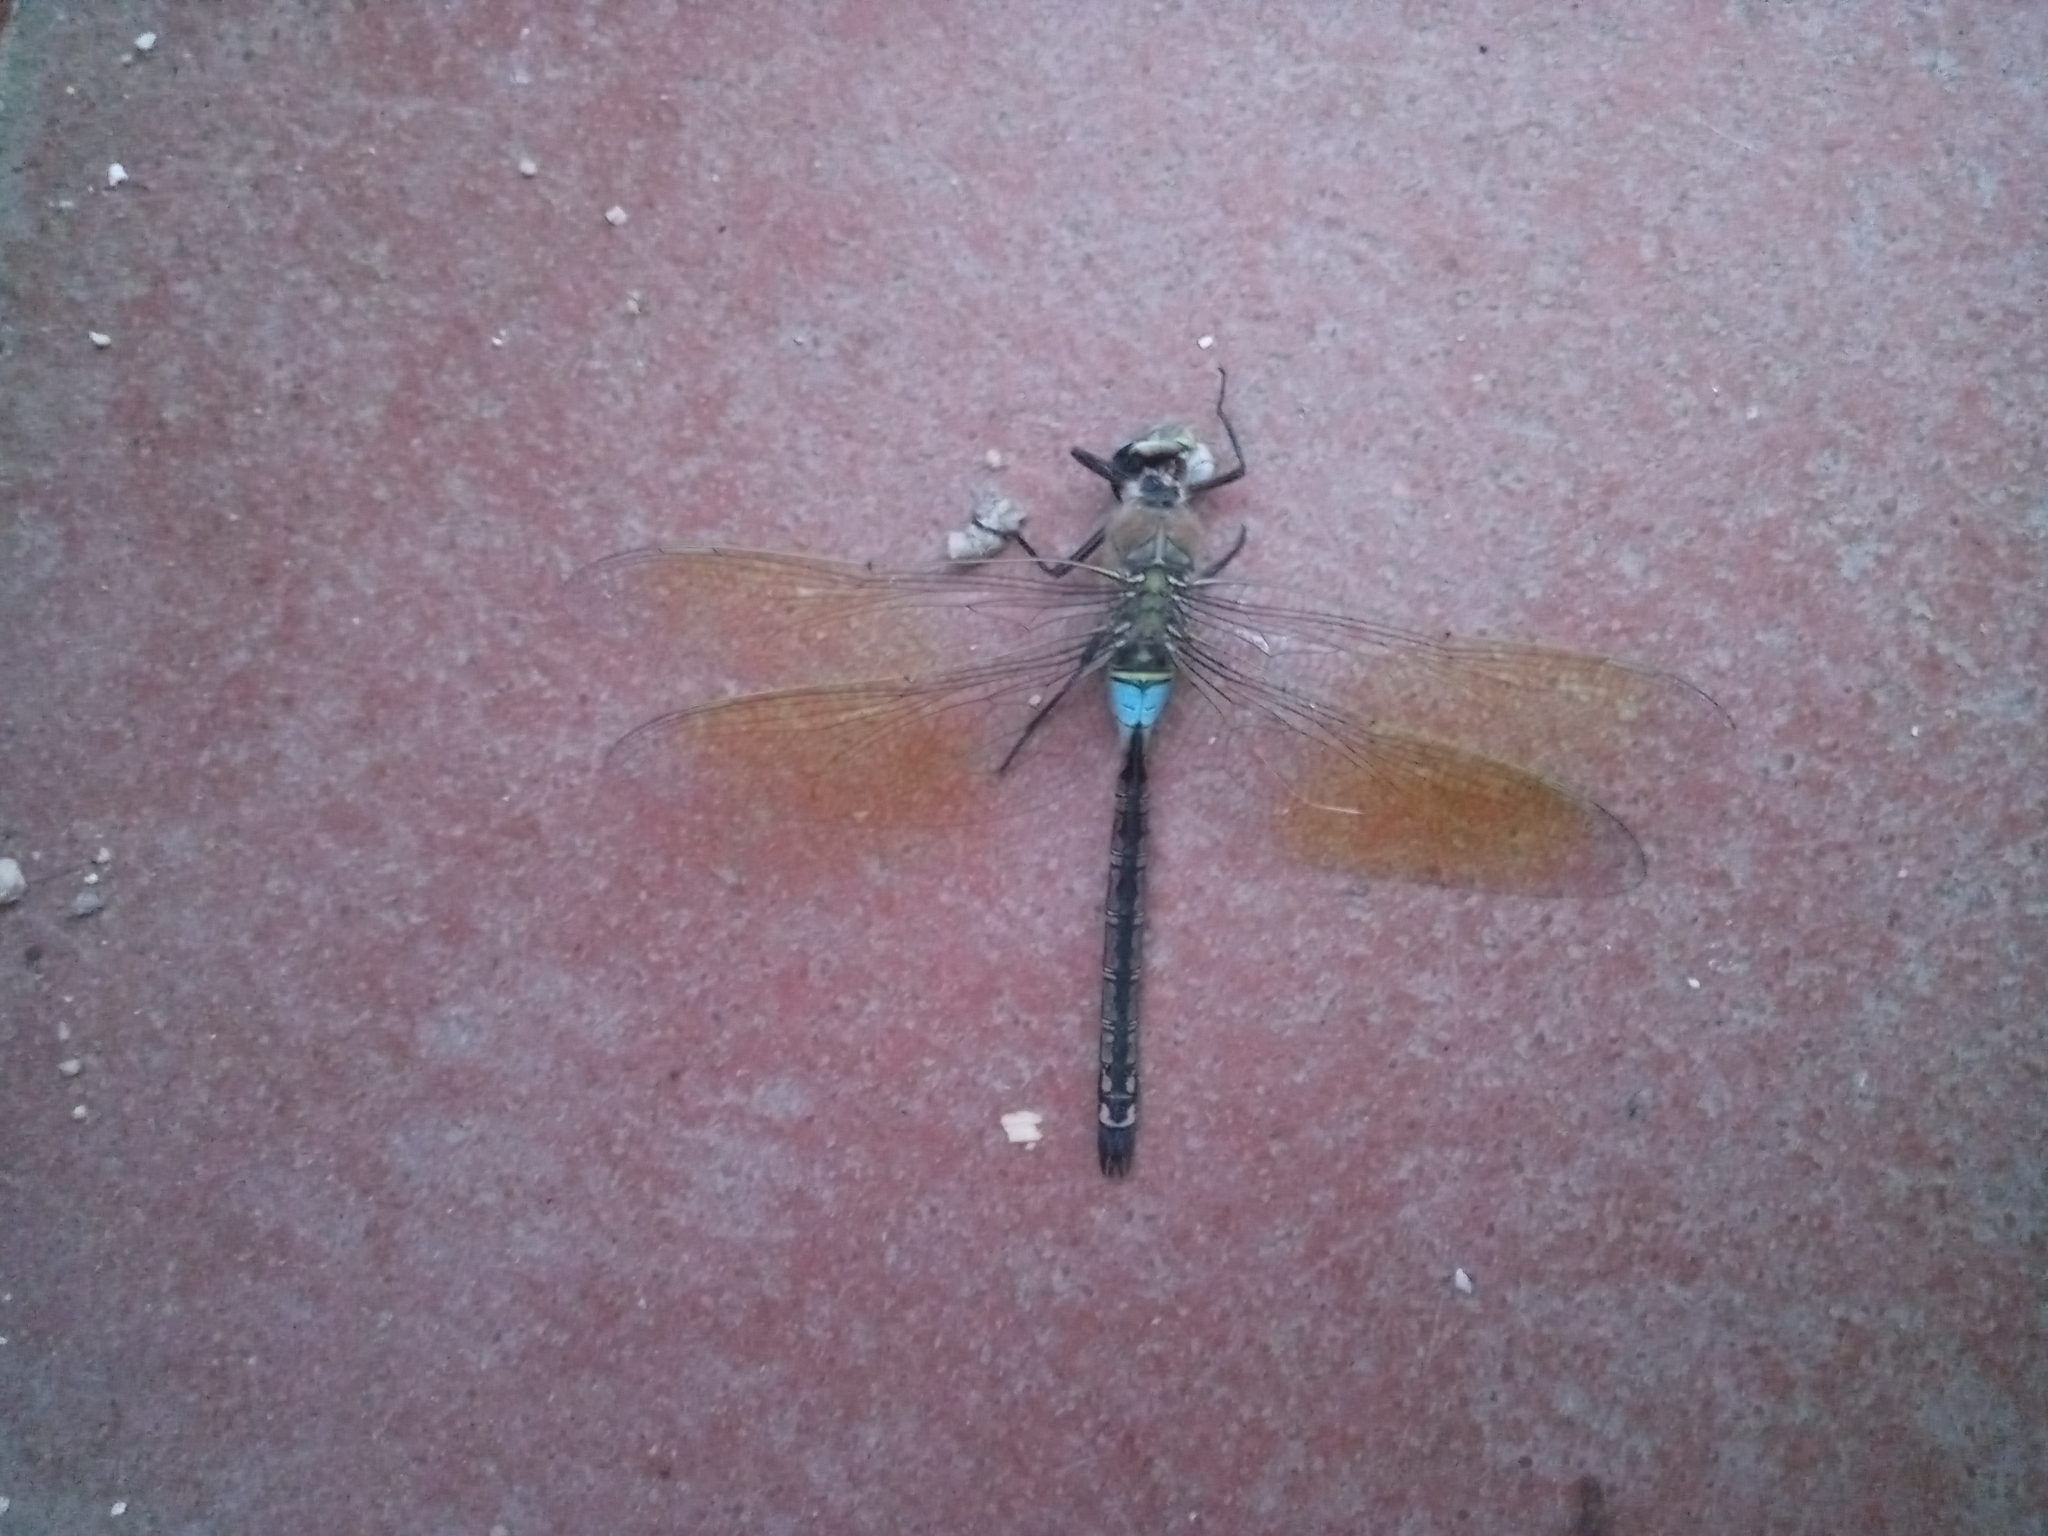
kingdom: Animalia
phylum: Arthropoda
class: Insecta
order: Odonata
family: Aeshnidae
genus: Anax
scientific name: Anax parthenope
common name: Lesser emperor
